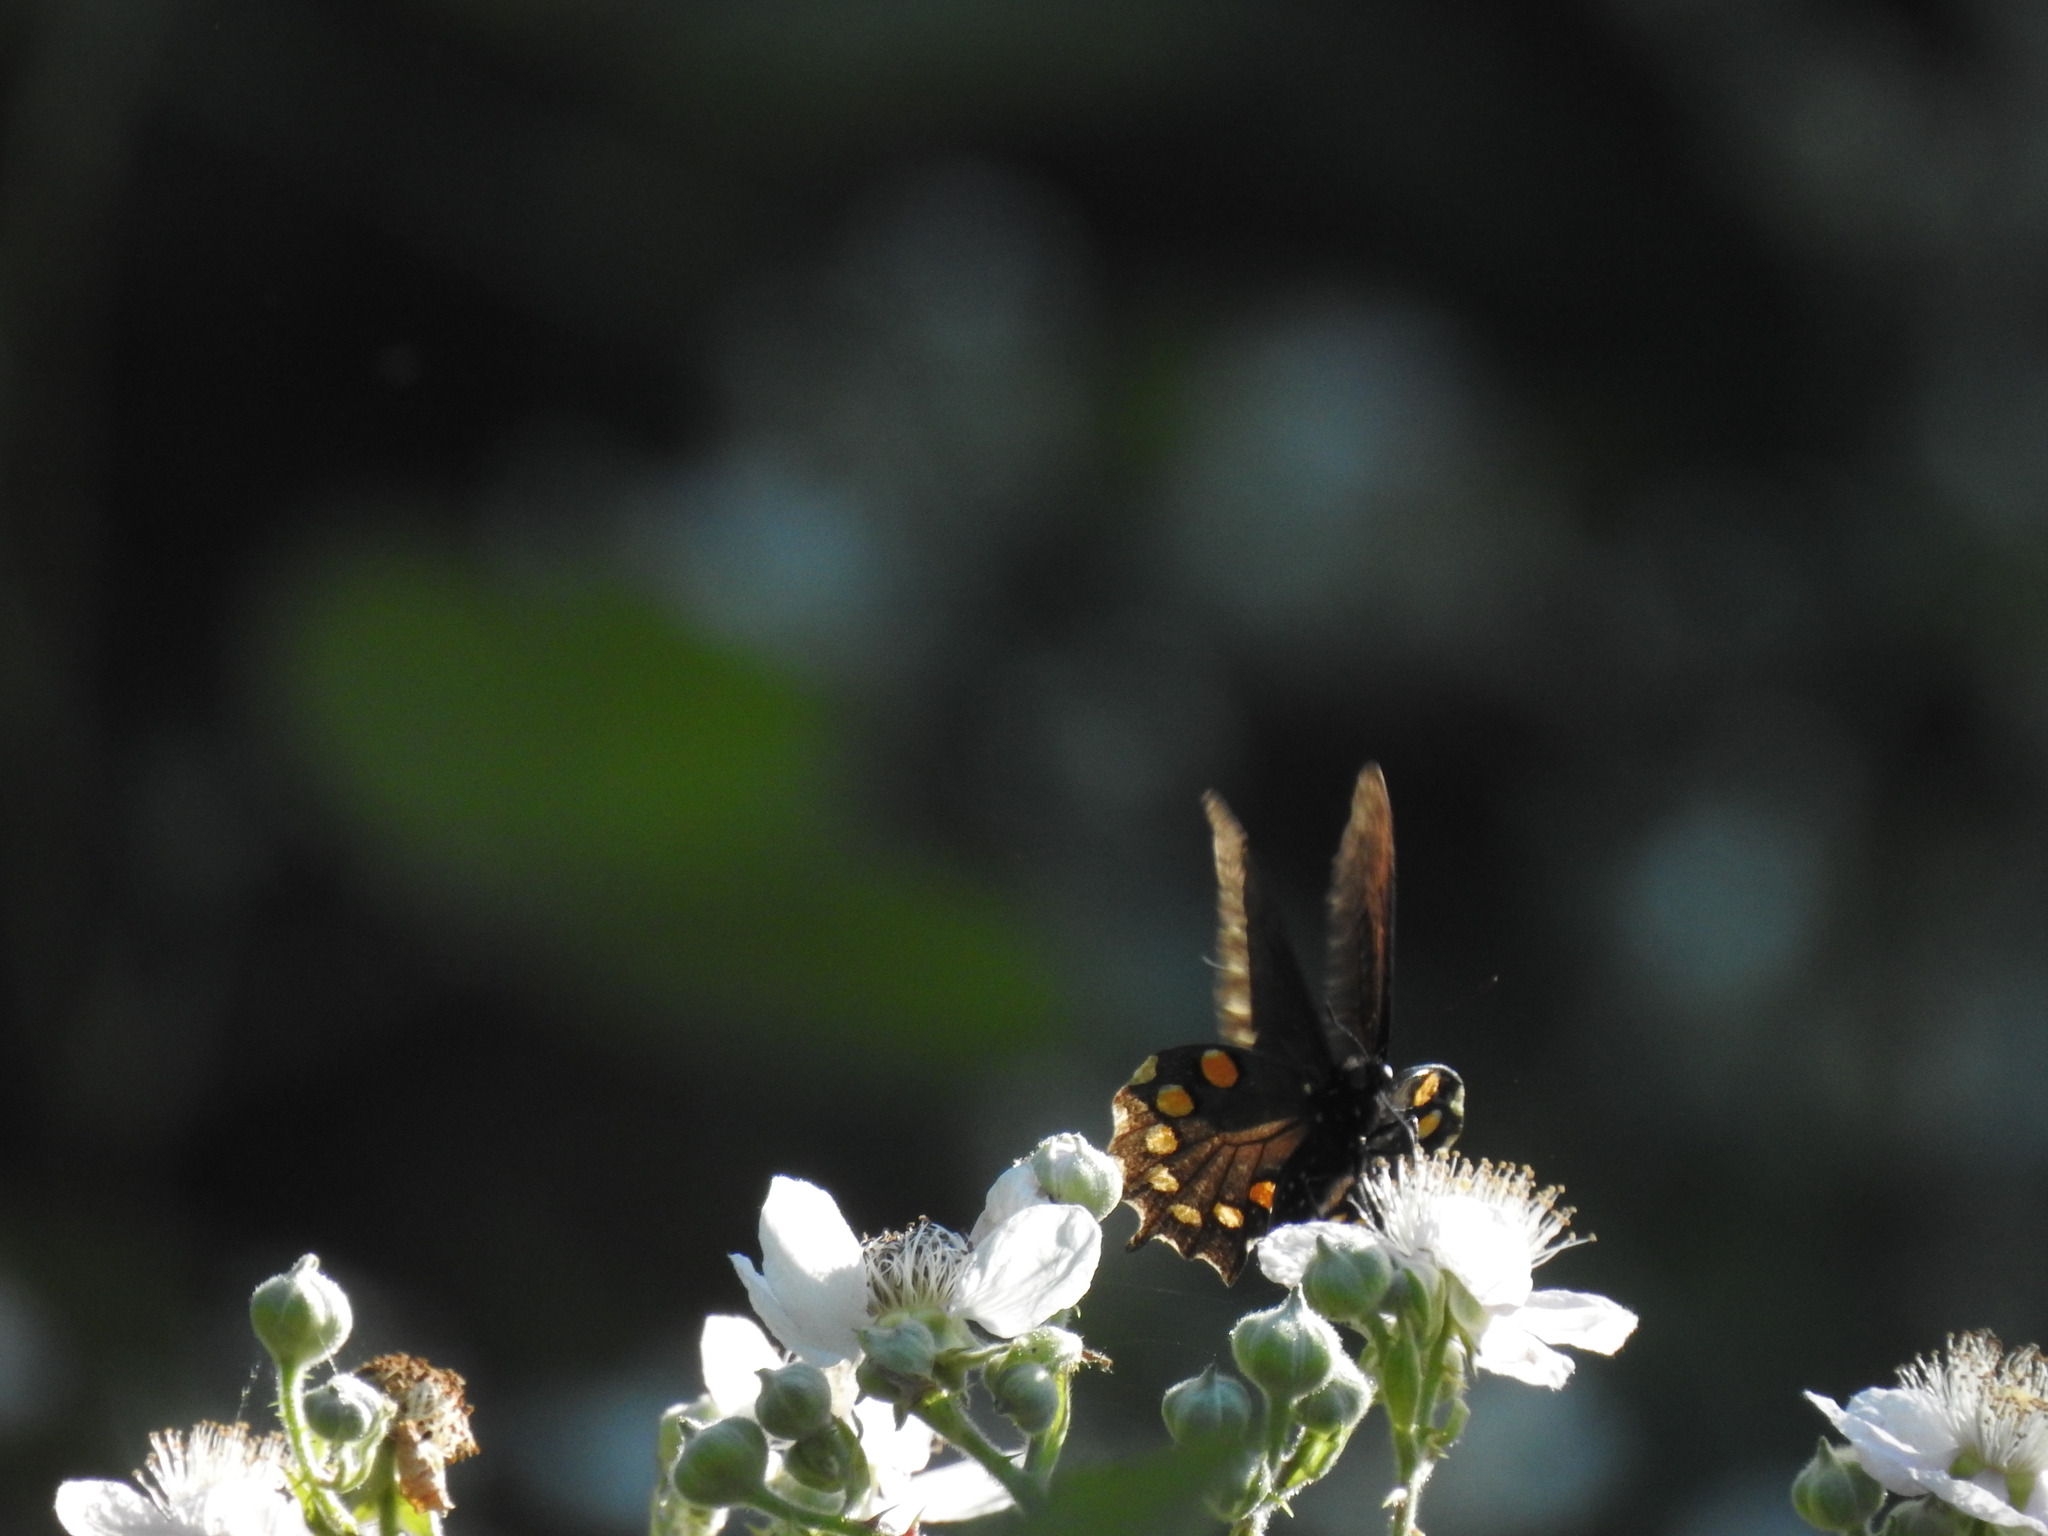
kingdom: Animalia
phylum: Arthropoda
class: Insecta
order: Lepidoptera
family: Papilionidae
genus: Battus
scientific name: Battus philenor
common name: Pipevine swallowtail
